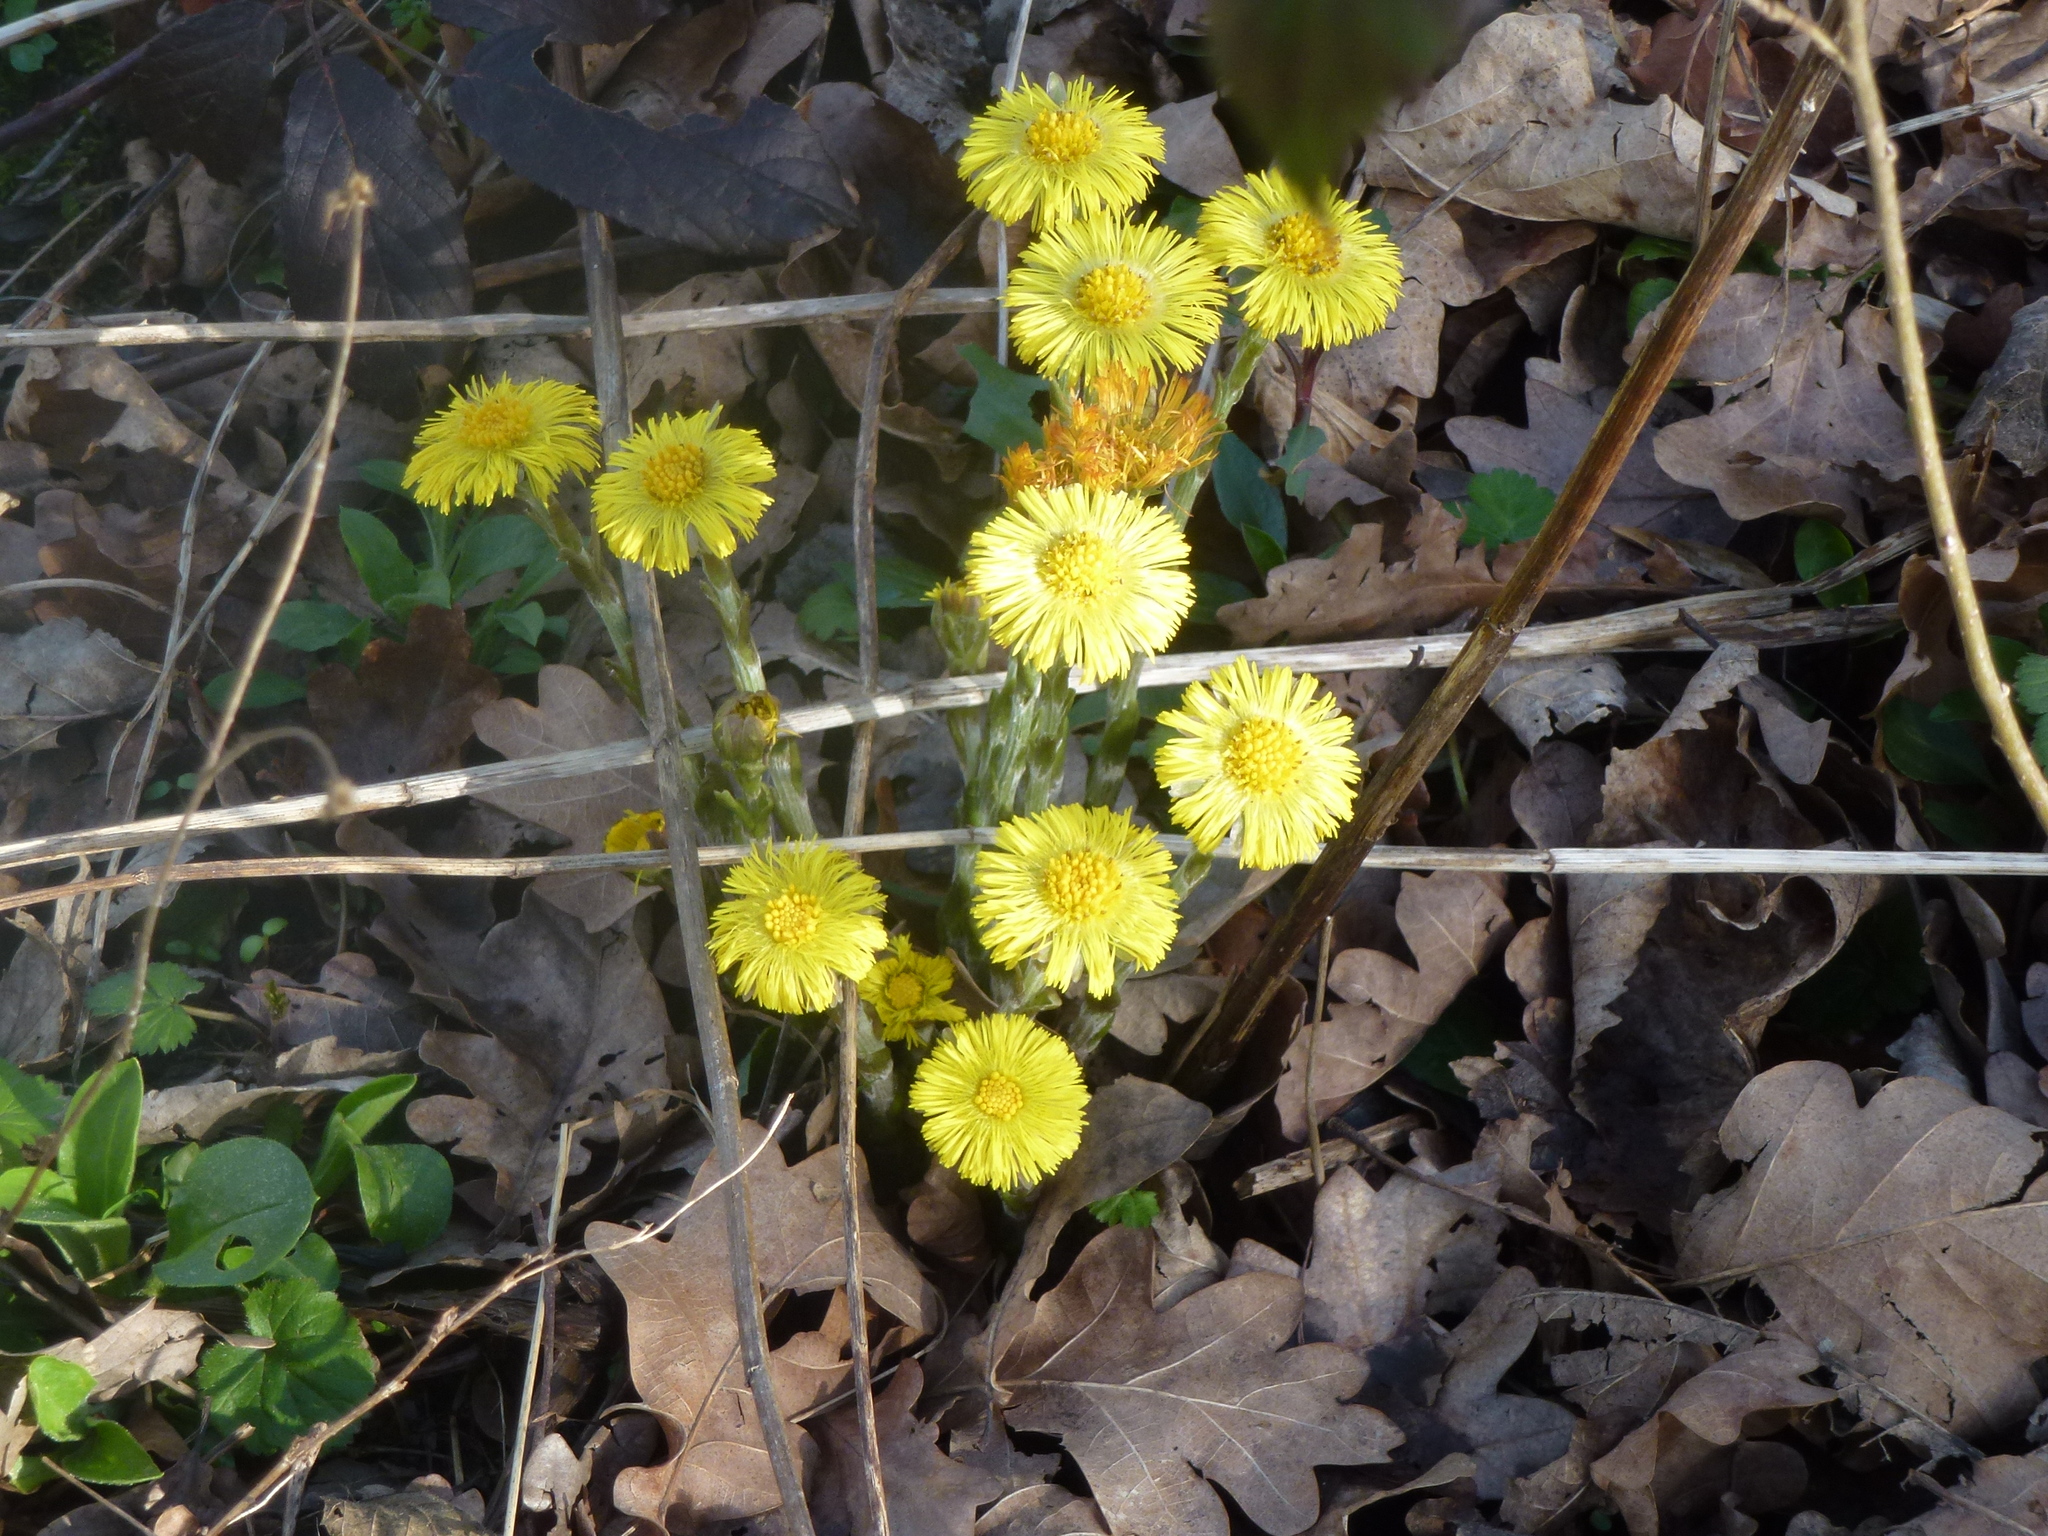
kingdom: Plantae
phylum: Tracheophyta
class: Magnoliopsida
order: Asterales
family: Asteraceae
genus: Tussilago
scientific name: Tussilago farfara
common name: Coltsfoot
